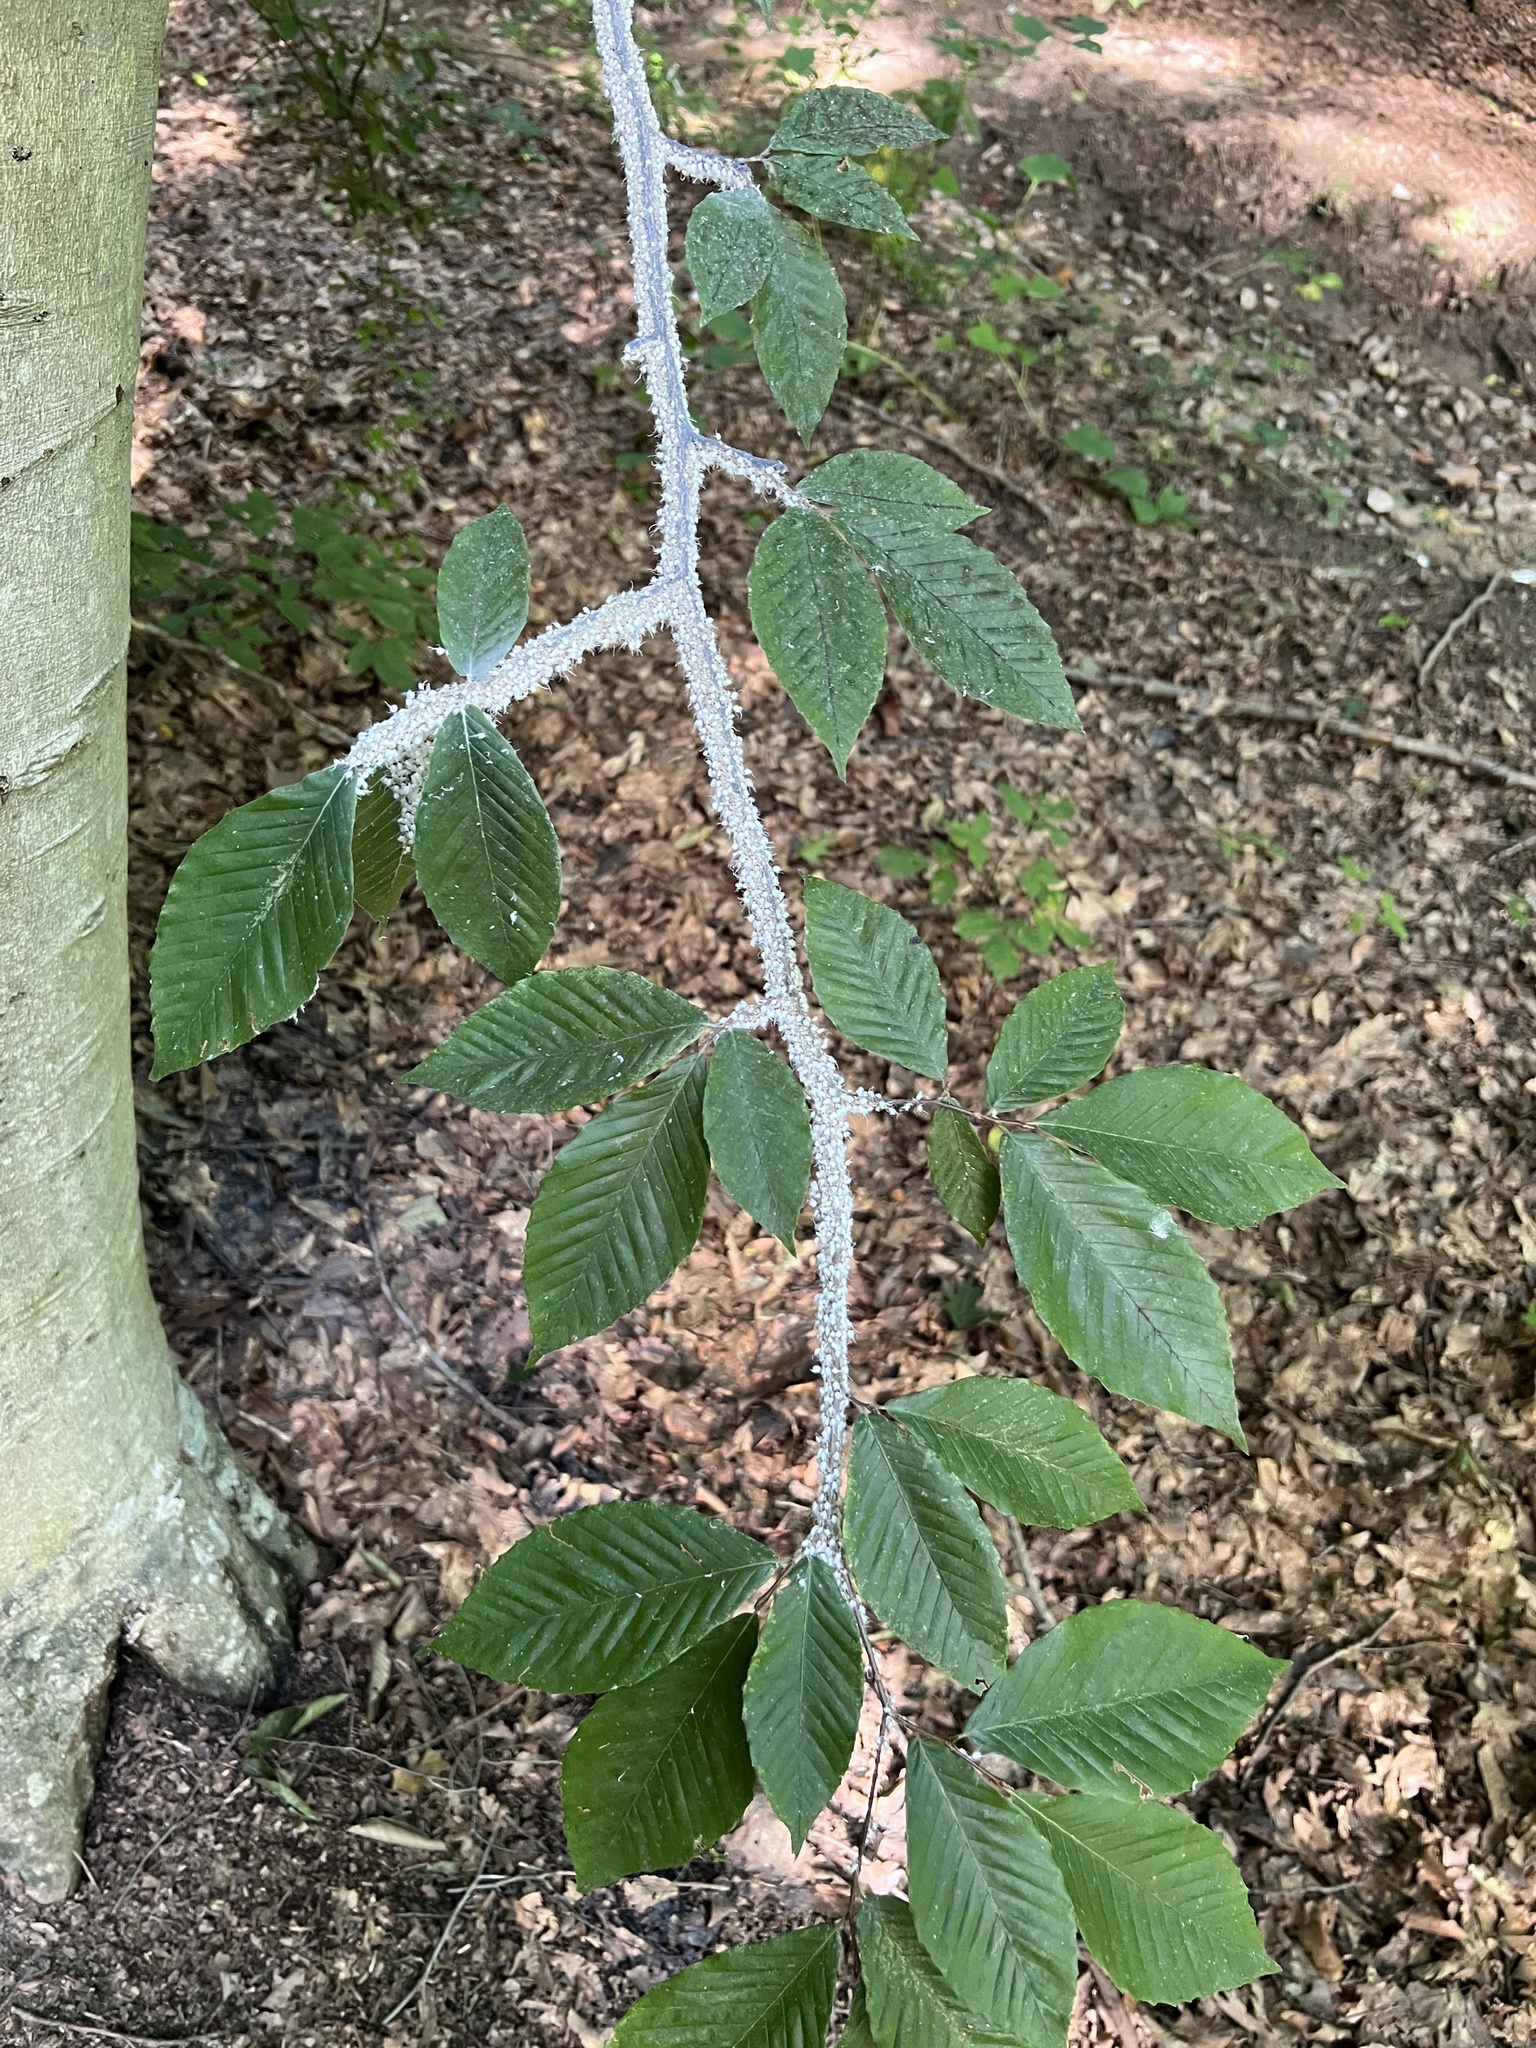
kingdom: Animalia
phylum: Arthropoda
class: Insecta
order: Hemiptera
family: Aphididae
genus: Grylloprociphilus
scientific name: Grylloprociphilus imbricator
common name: Beech blight aphid
